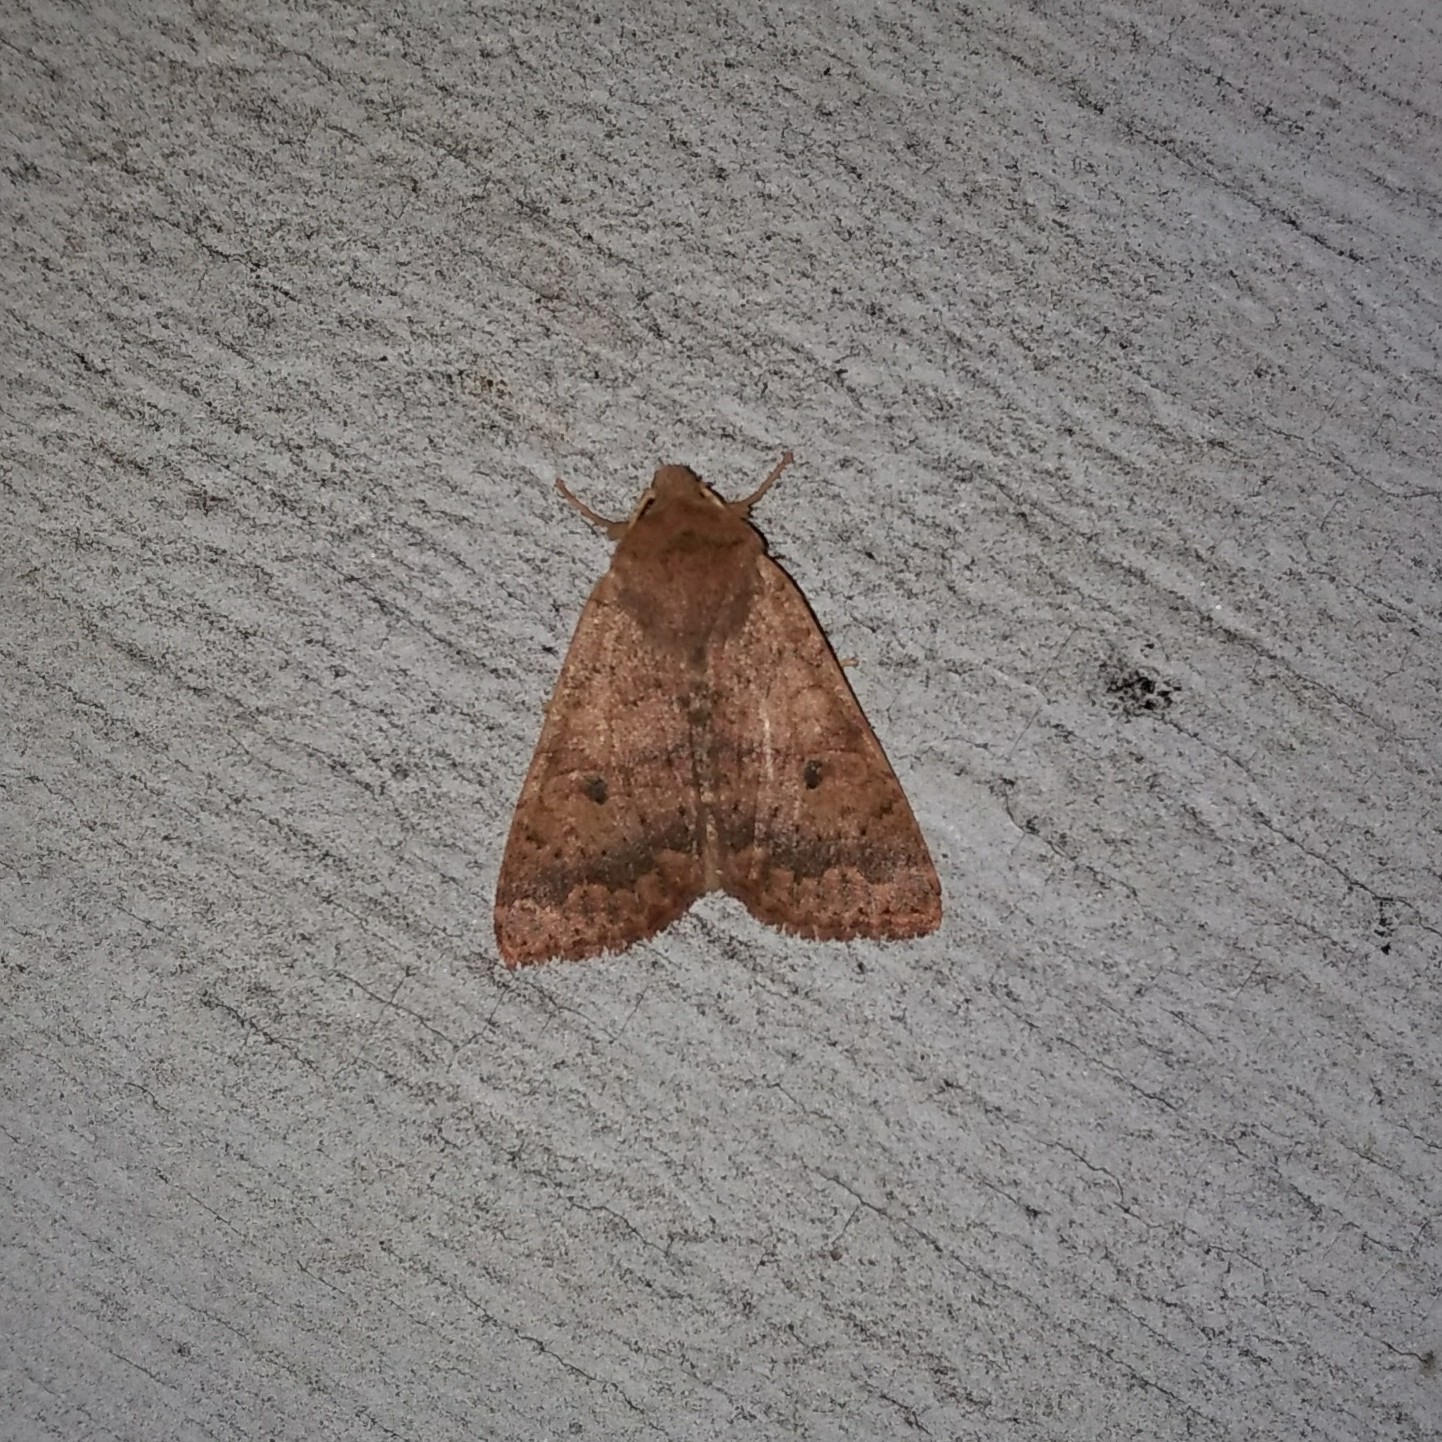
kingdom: Animalia
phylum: Arthropoda
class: Insecta
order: Lepidoptera
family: Noctuidae
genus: Agrochola
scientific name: Agrochola bicolorago
